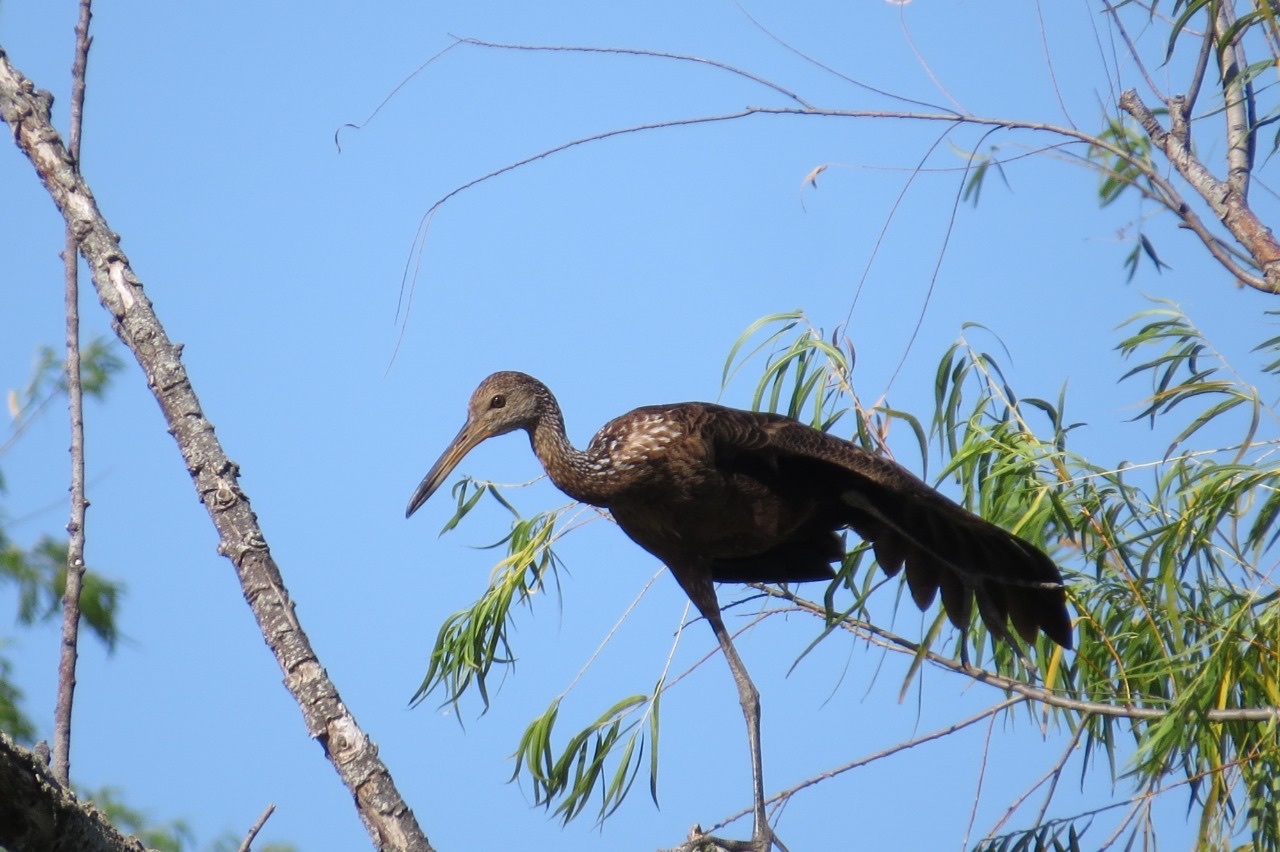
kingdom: Animalia
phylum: Chordata
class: Aves
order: Gruiformes
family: Aramidae
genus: Aramus
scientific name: Aramus guarauna
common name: Limpkin
